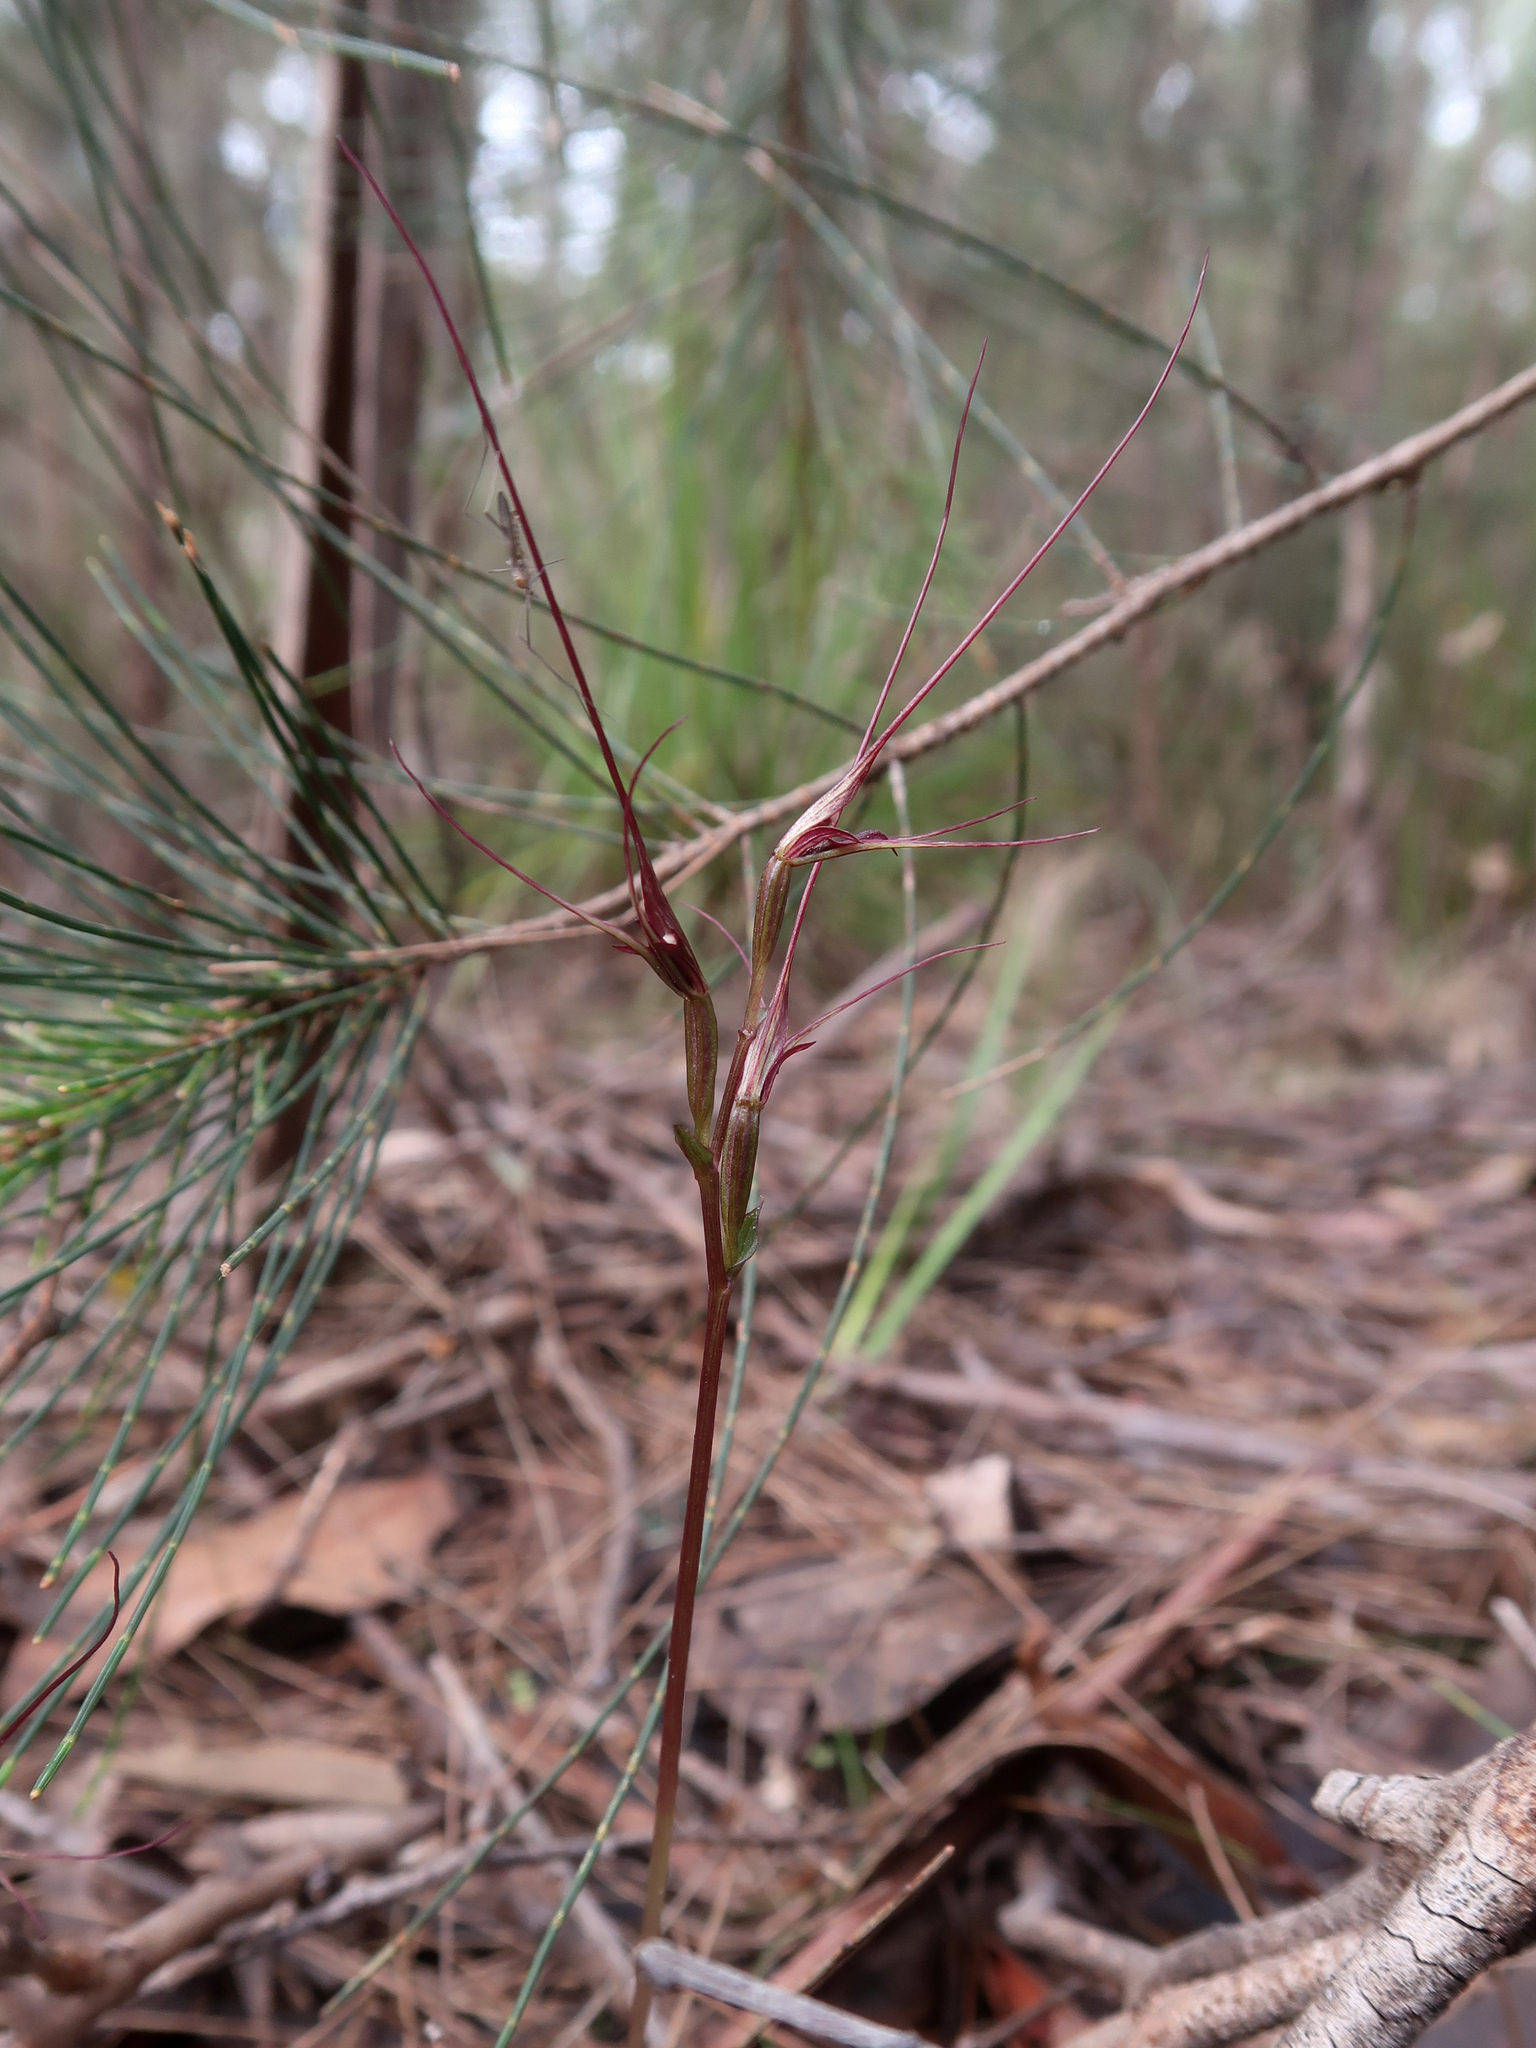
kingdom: Plantae
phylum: Tracheophyta
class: Liliopsida
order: Asparagales
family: Orchidaceae
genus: Acianthus
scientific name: Acianthus caudatus
